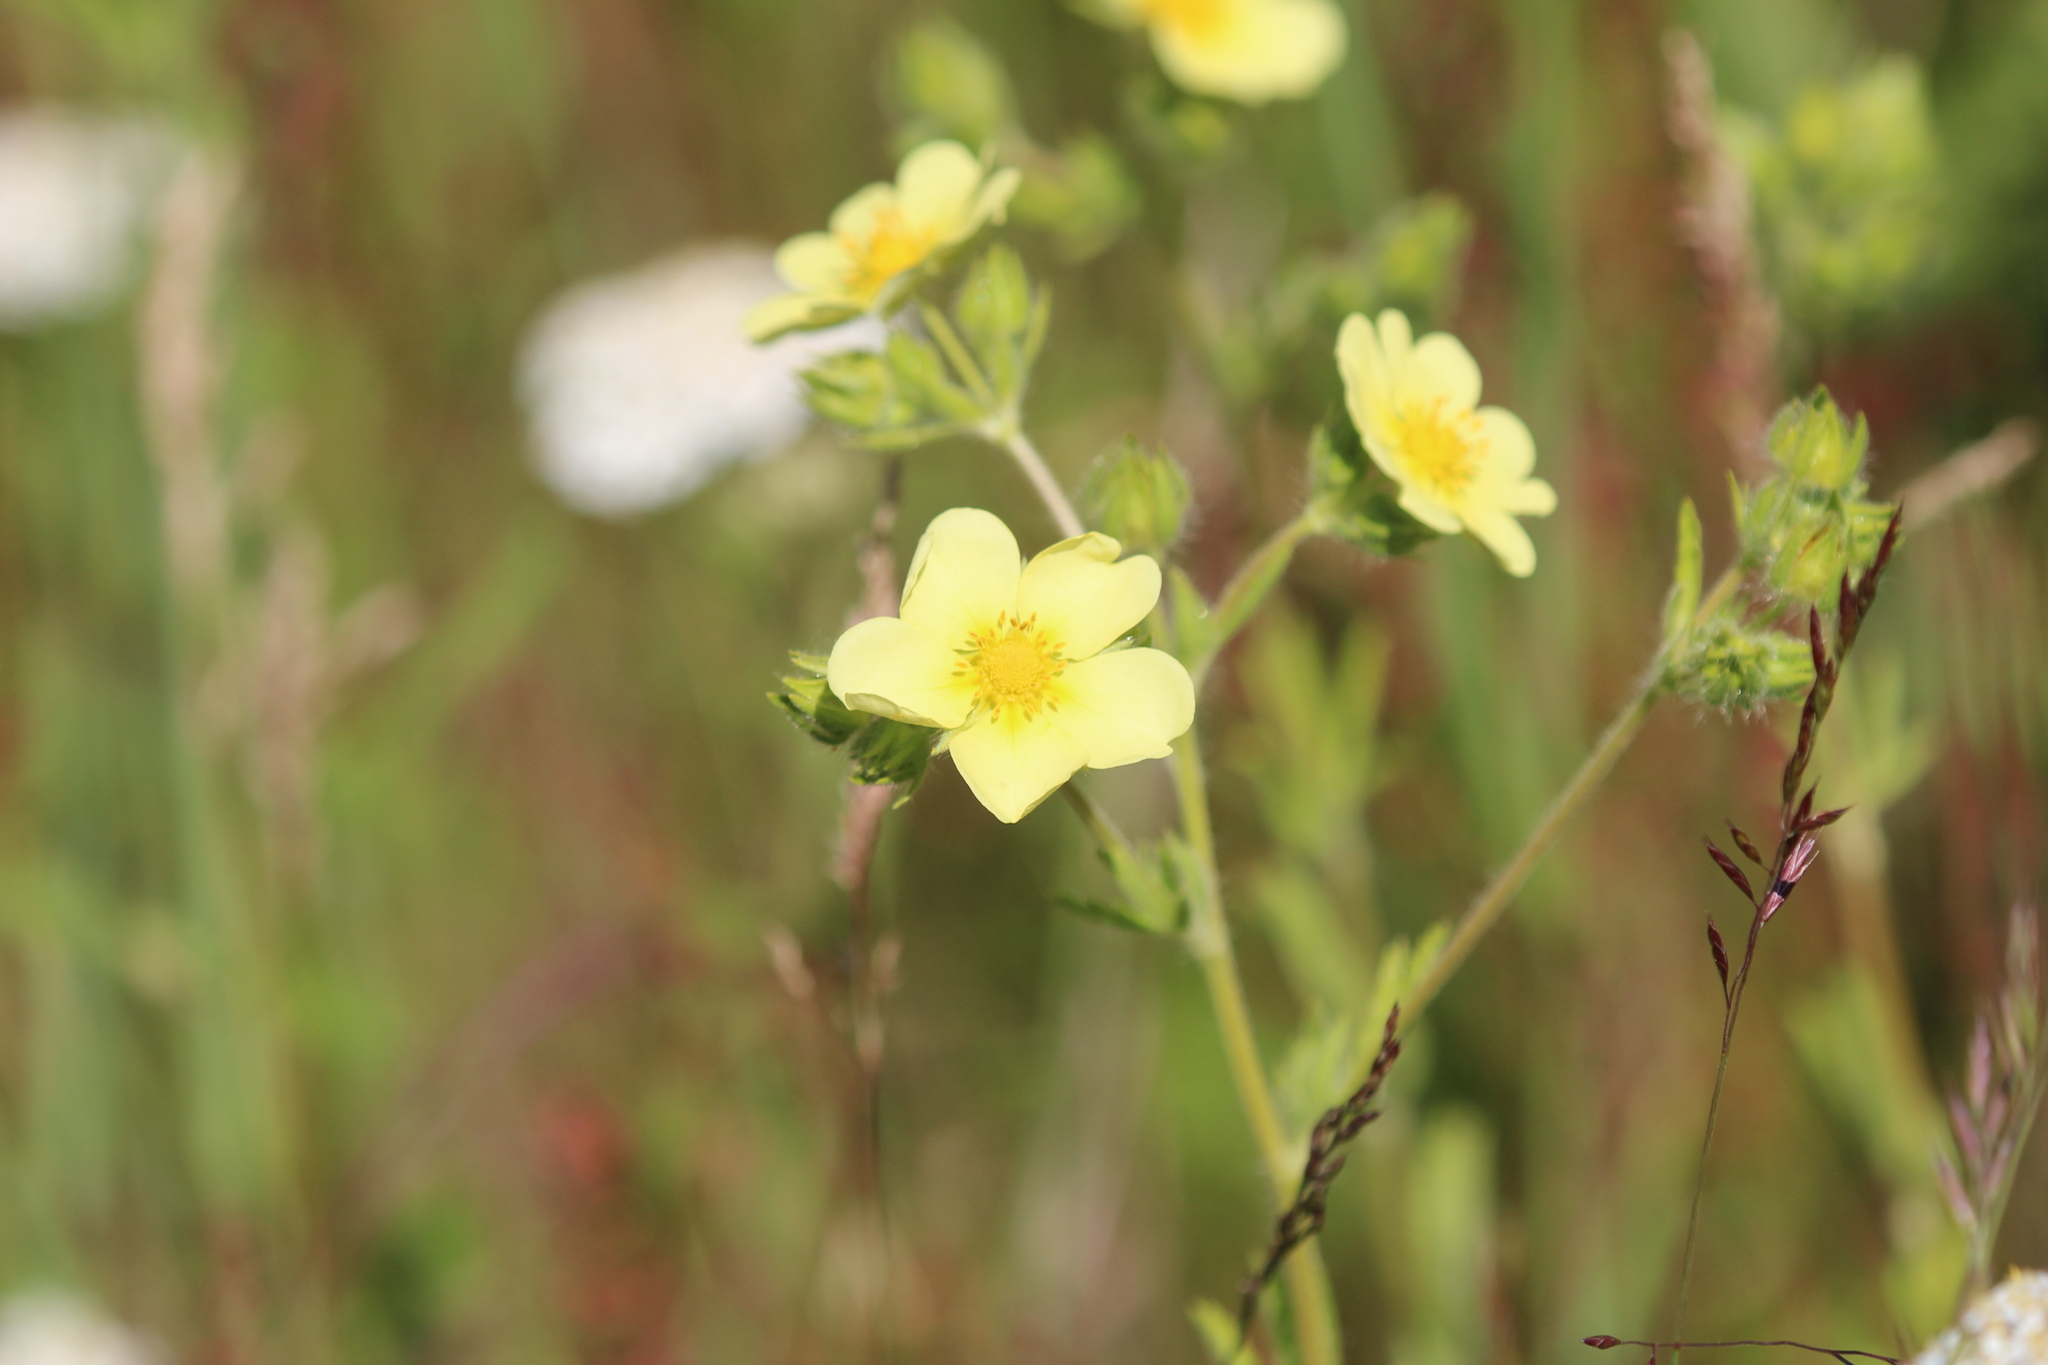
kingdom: Plantae
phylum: Tracheophyta
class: Magnoliopsida
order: Rosales
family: Rosaceae
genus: Potentilla
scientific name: Potentilla recta
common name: Sulphur cinquefoil
